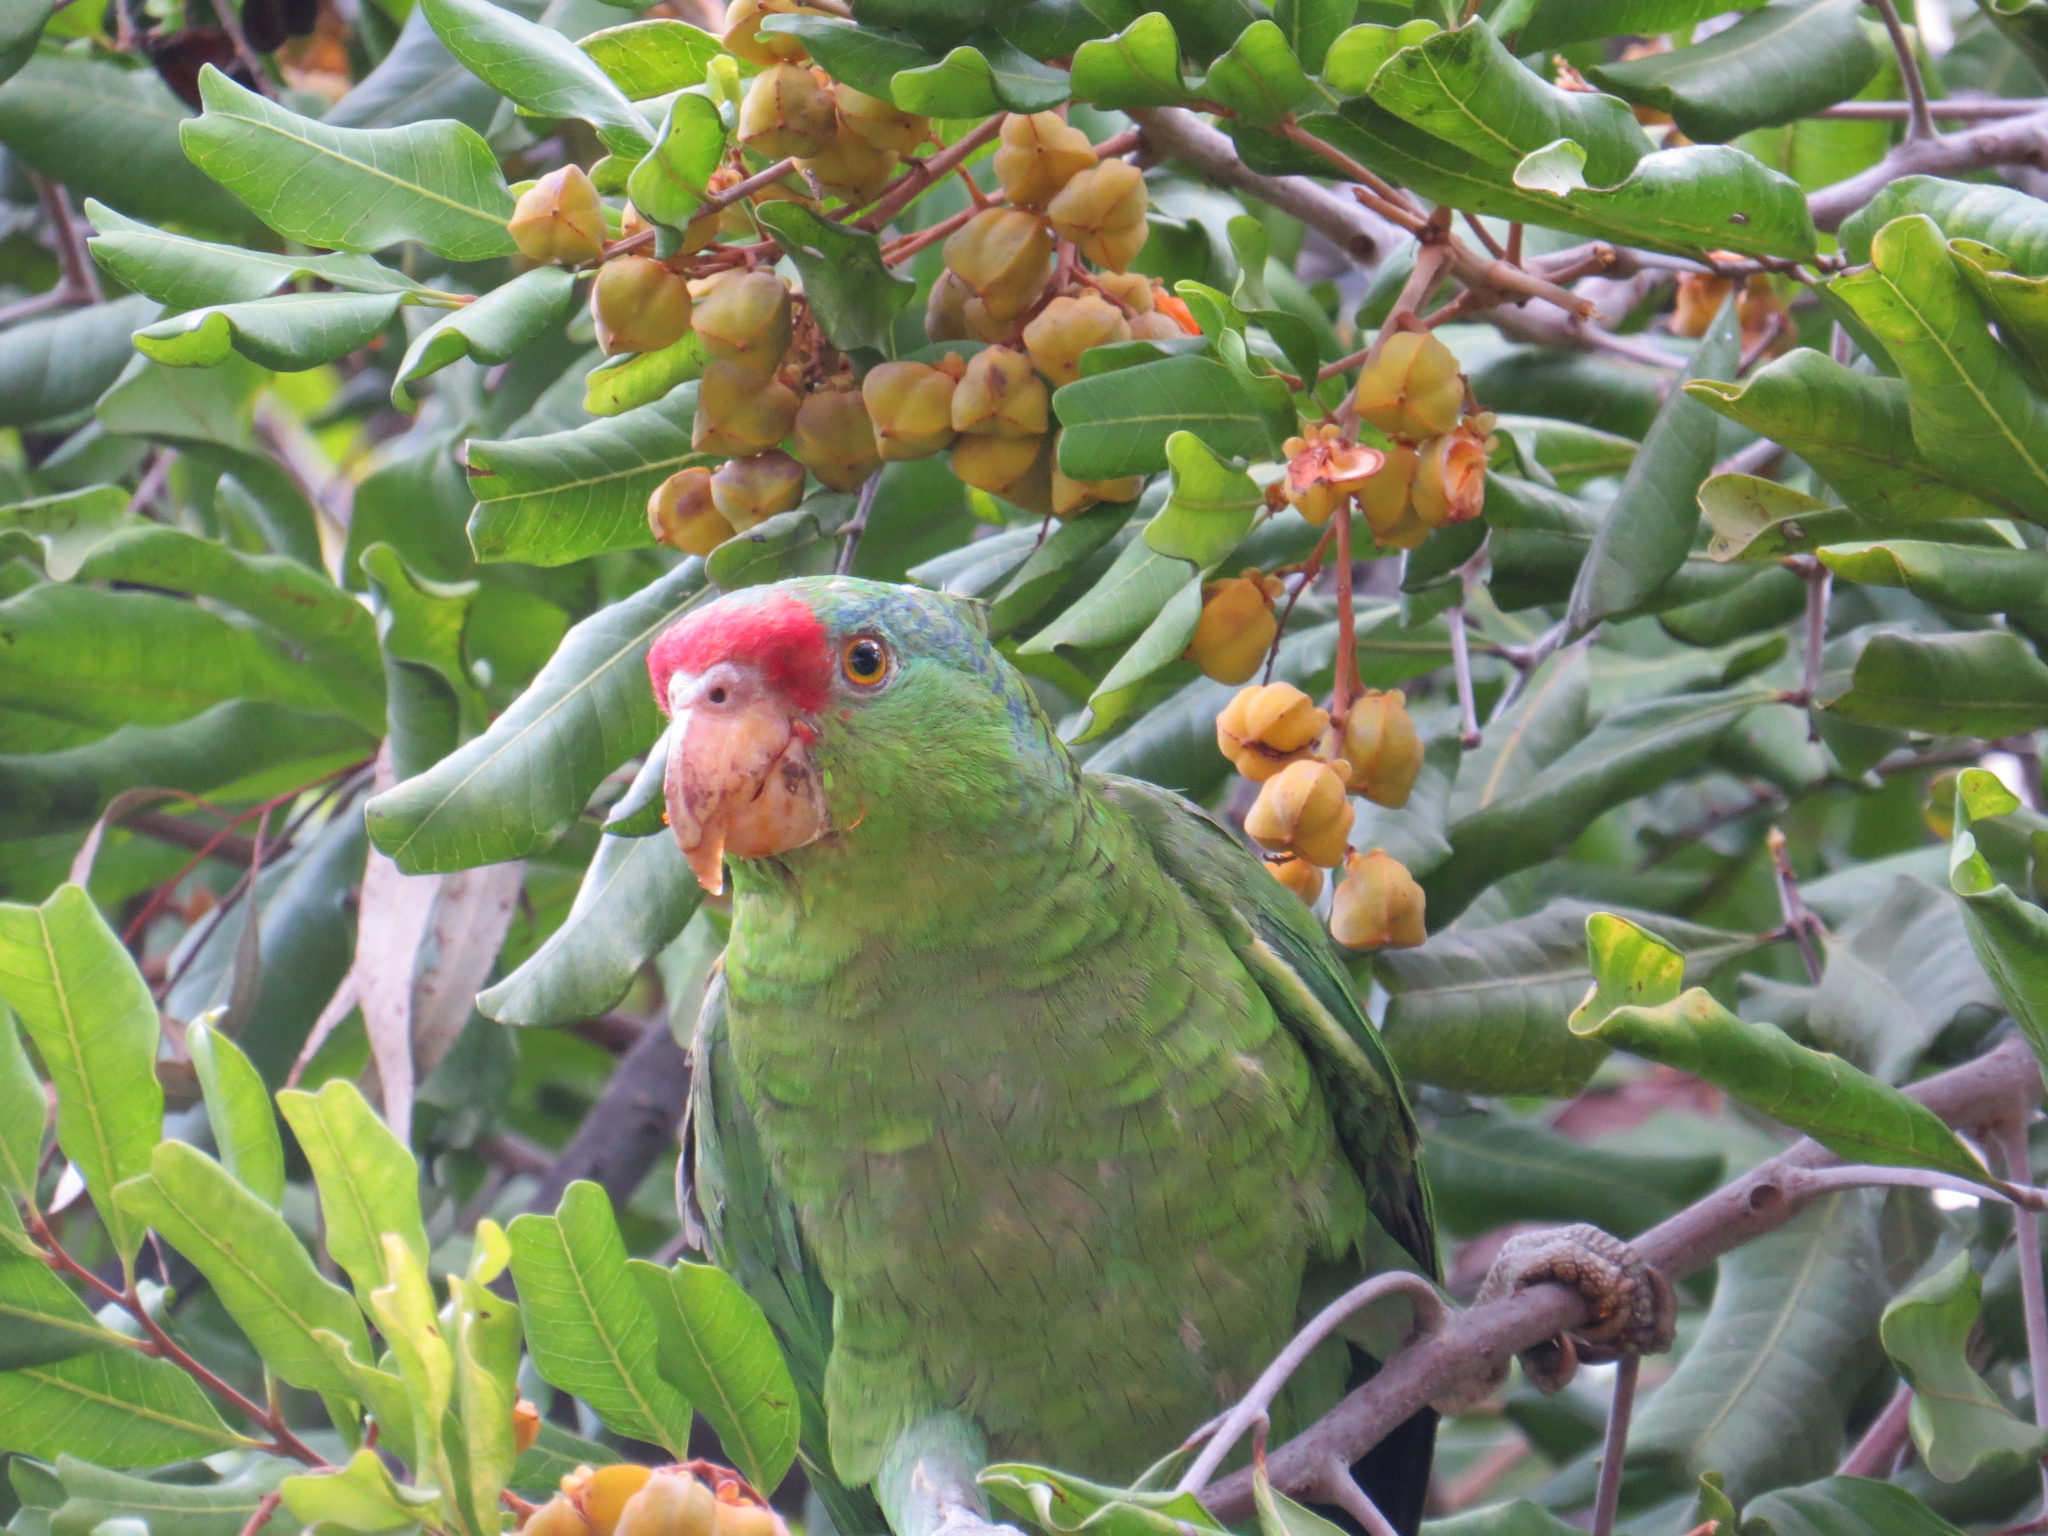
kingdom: Animalia
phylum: Chordata
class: Aves
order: Psittaciformes
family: Psittacidae
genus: Amazona
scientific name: Amazona viridigenalis
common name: Red-crowned amazon
